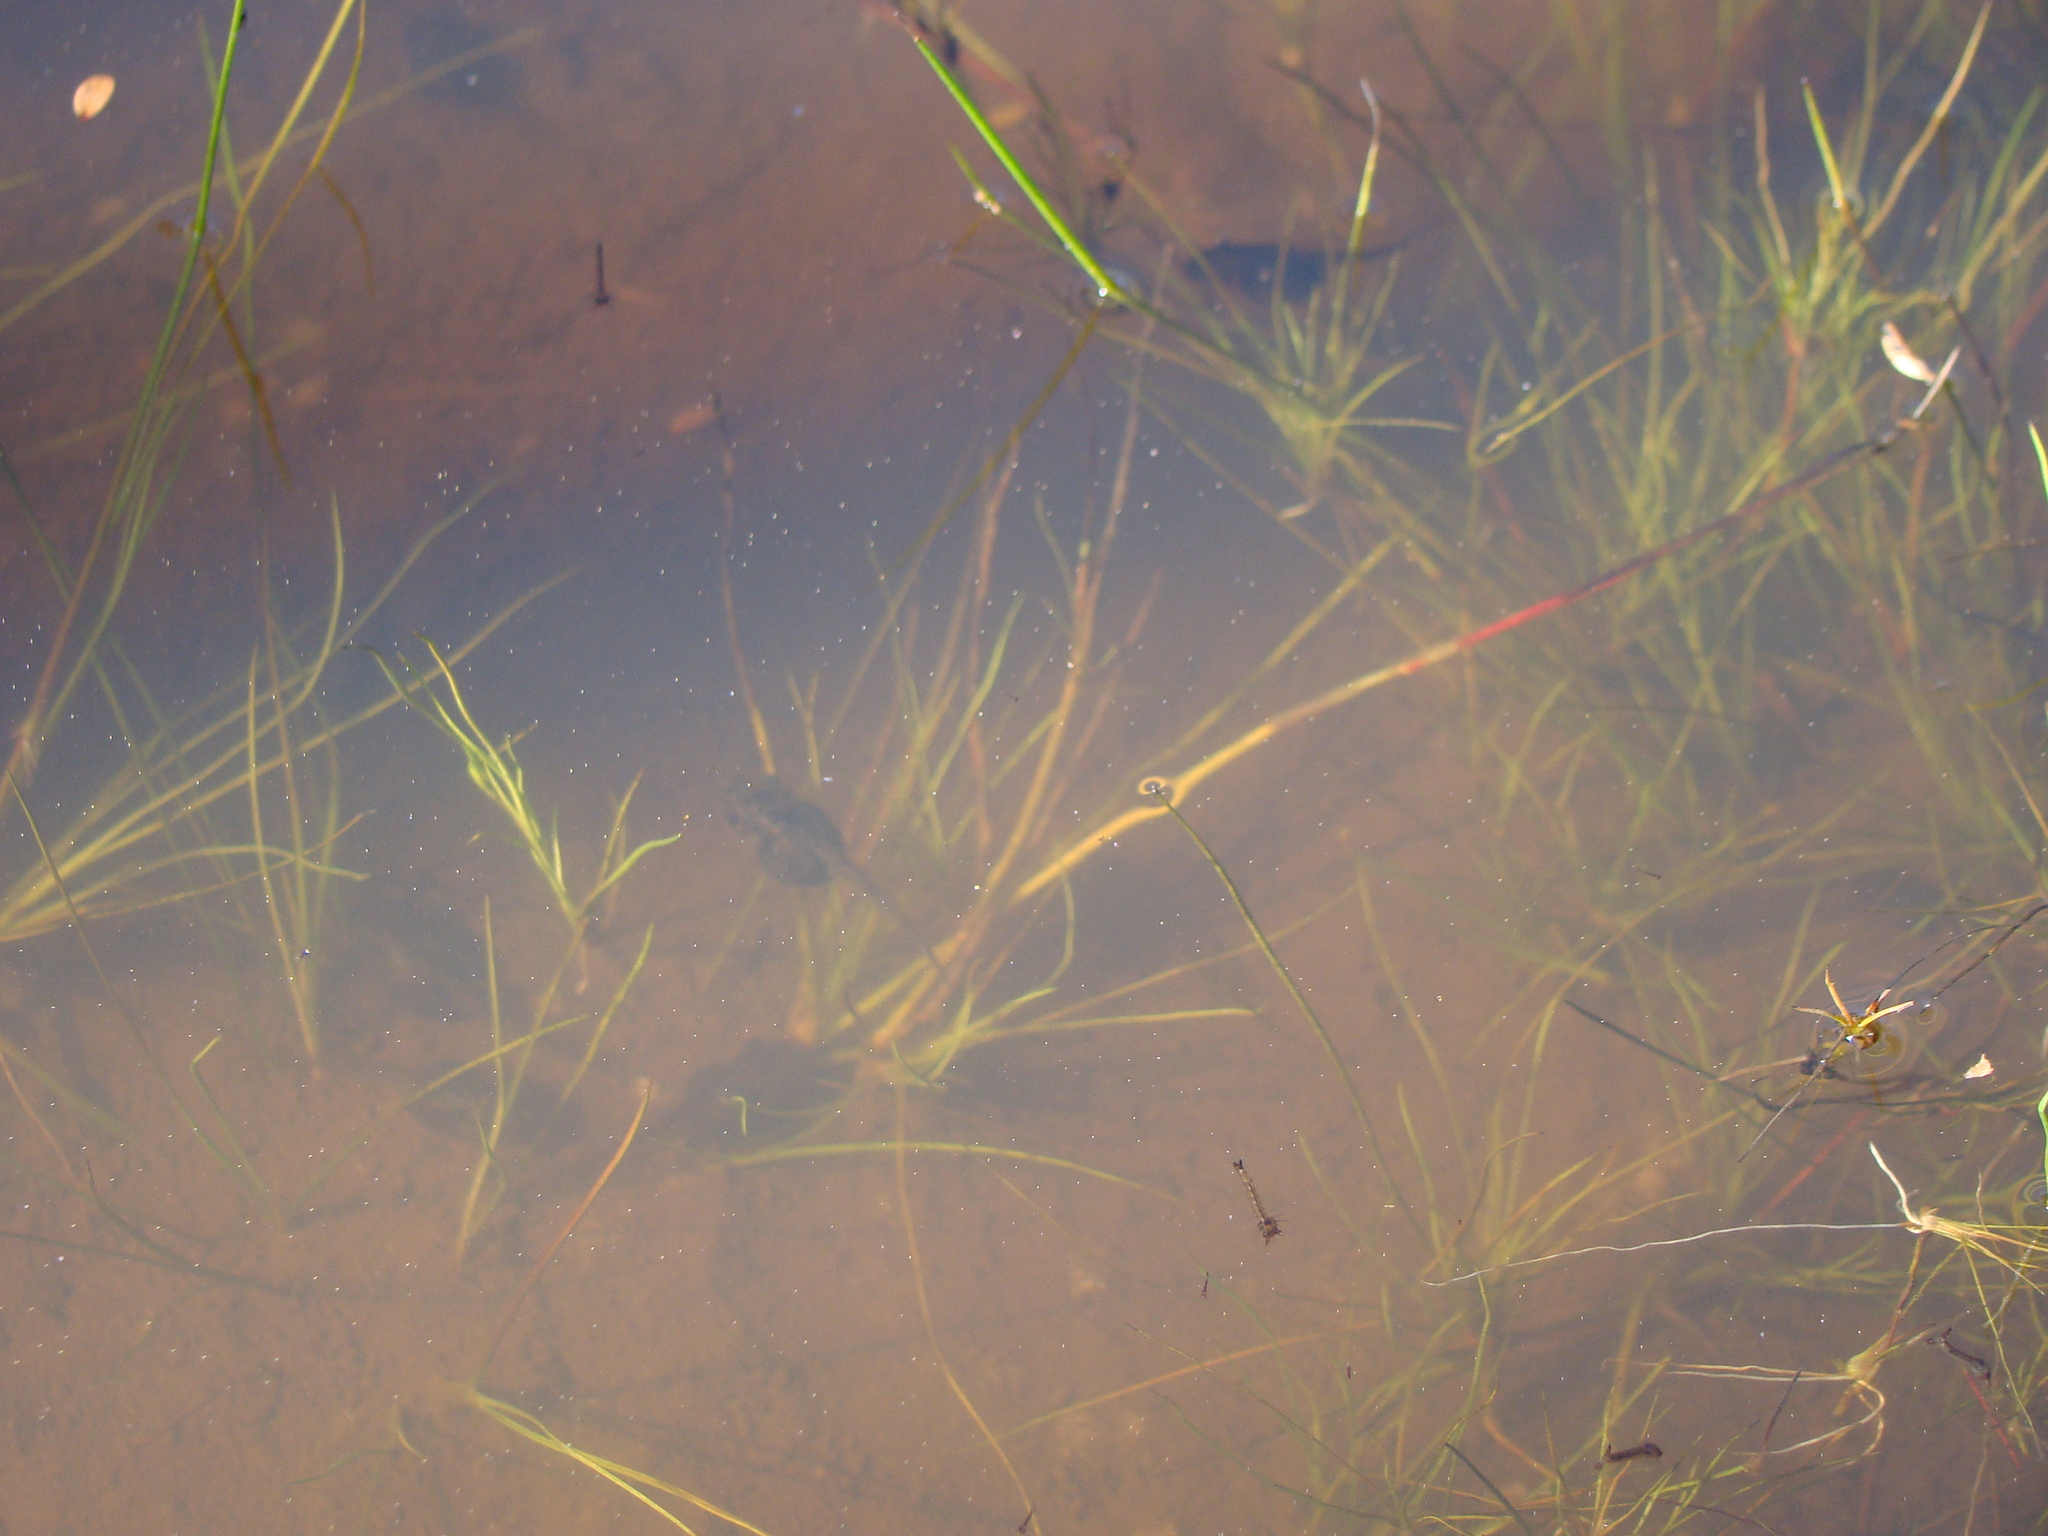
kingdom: Animalia
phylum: Chordata
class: Amphibia
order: Anura
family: Pelodryadidae
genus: Litoria
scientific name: Litoria ewingii
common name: Southern brown tree frog
